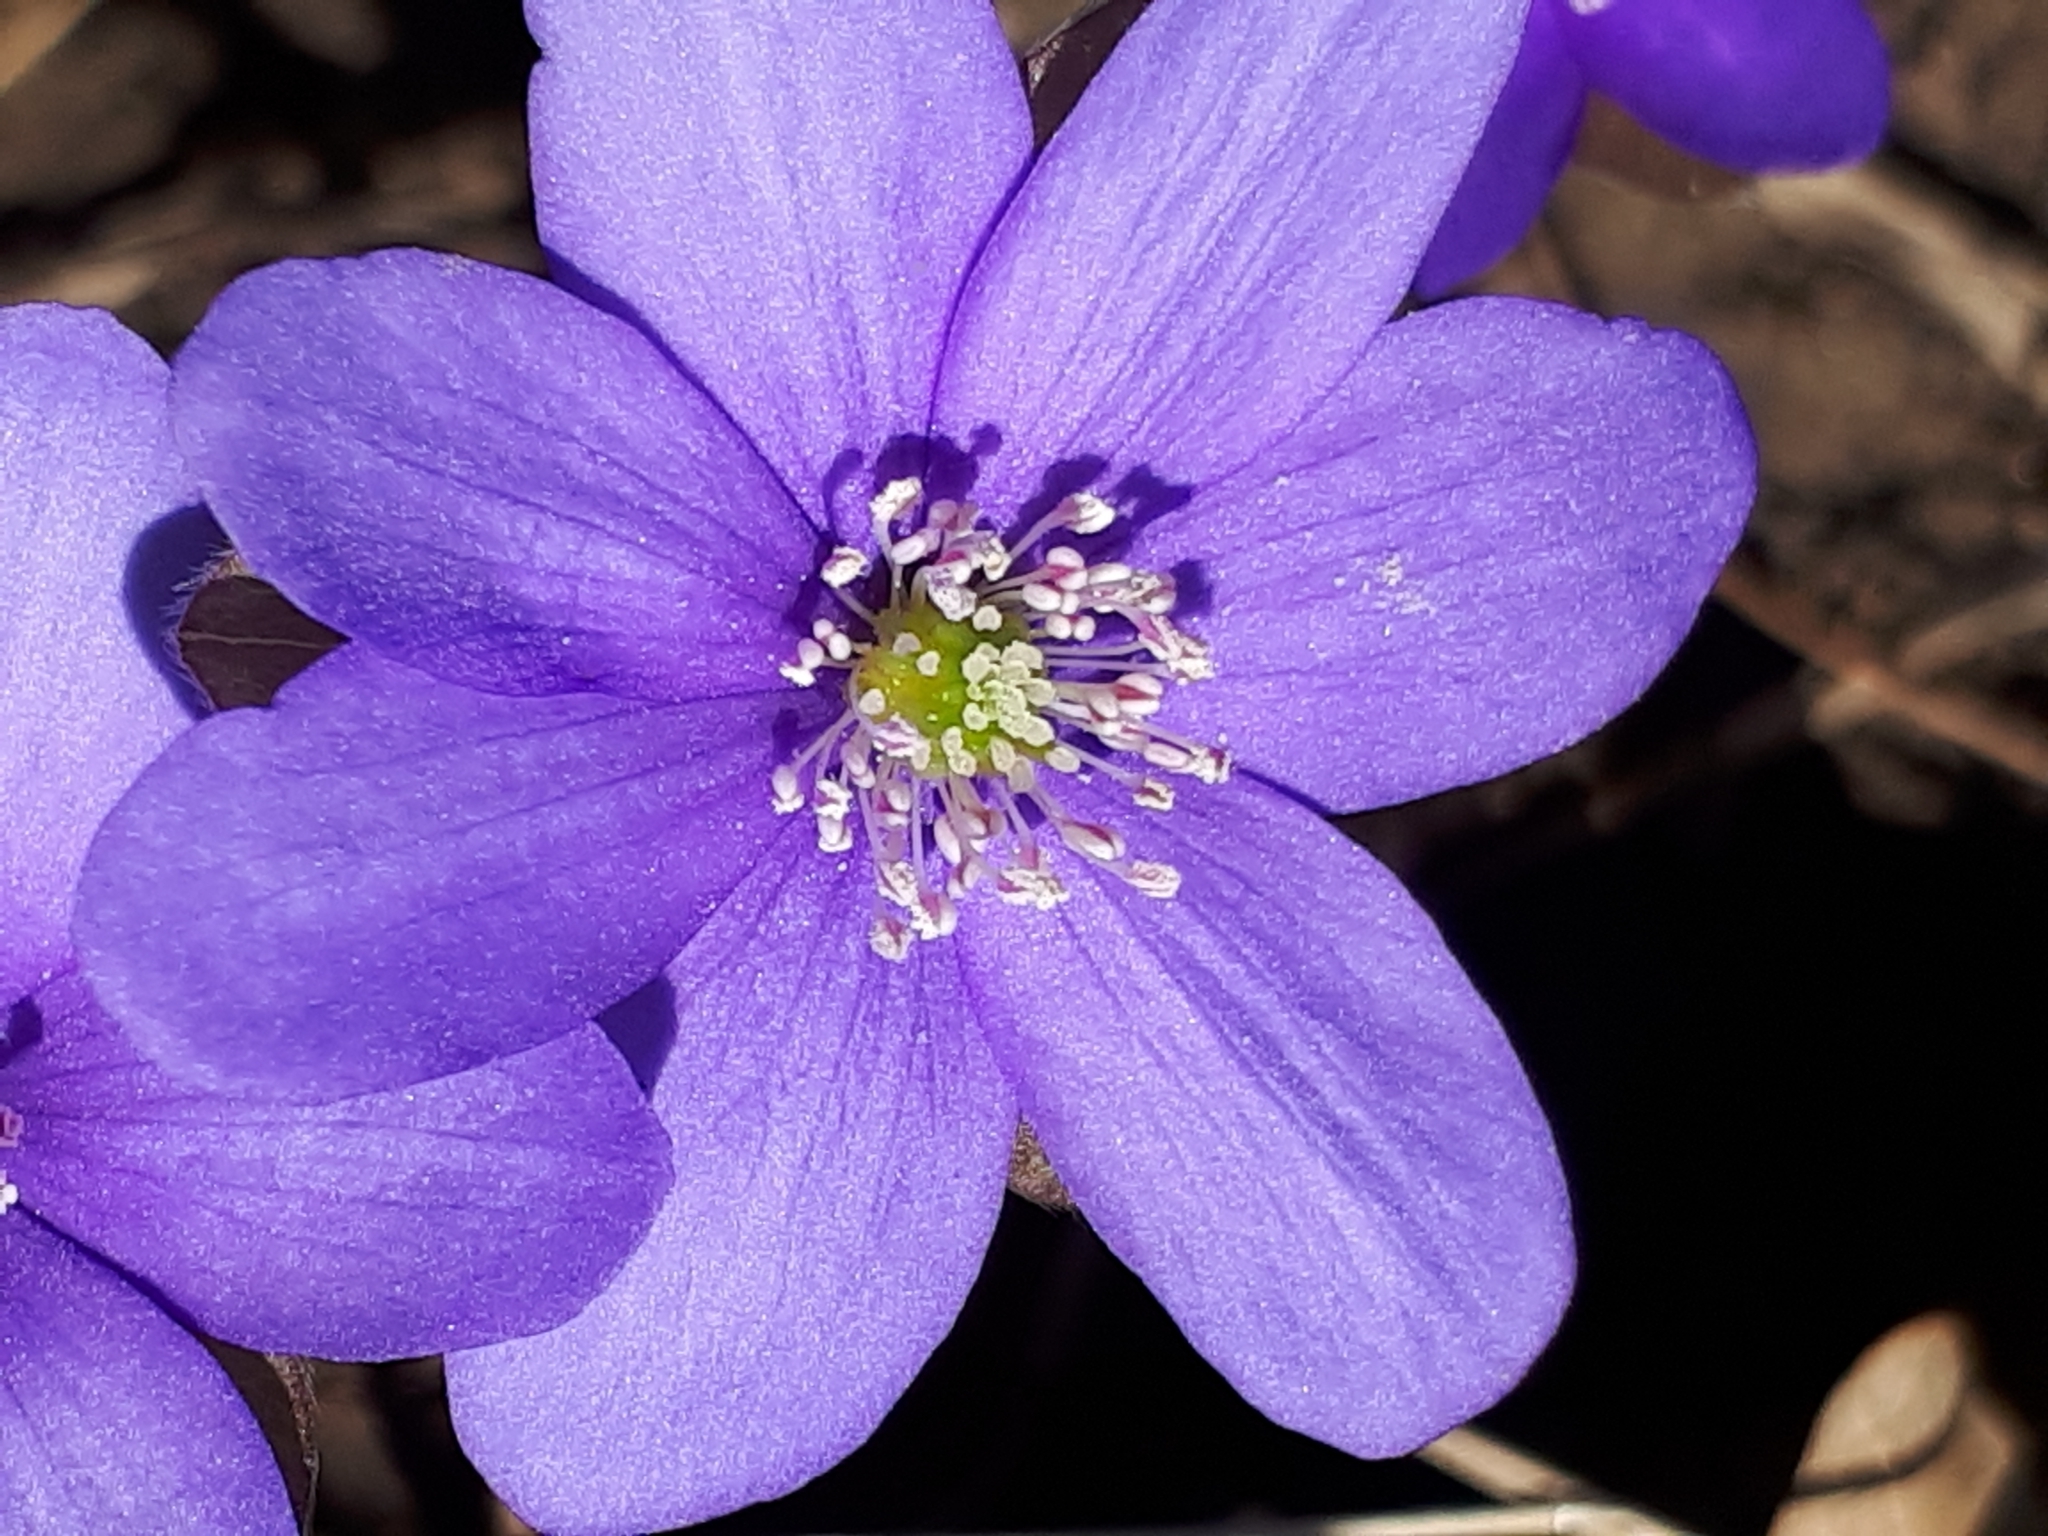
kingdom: Plantae
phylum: Tracheophyta
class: Magnoliopsida
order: Ranunculales
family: Ranunculaceae
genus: Hepatica
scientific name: Hepatica nobilis
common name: Liverleaf
